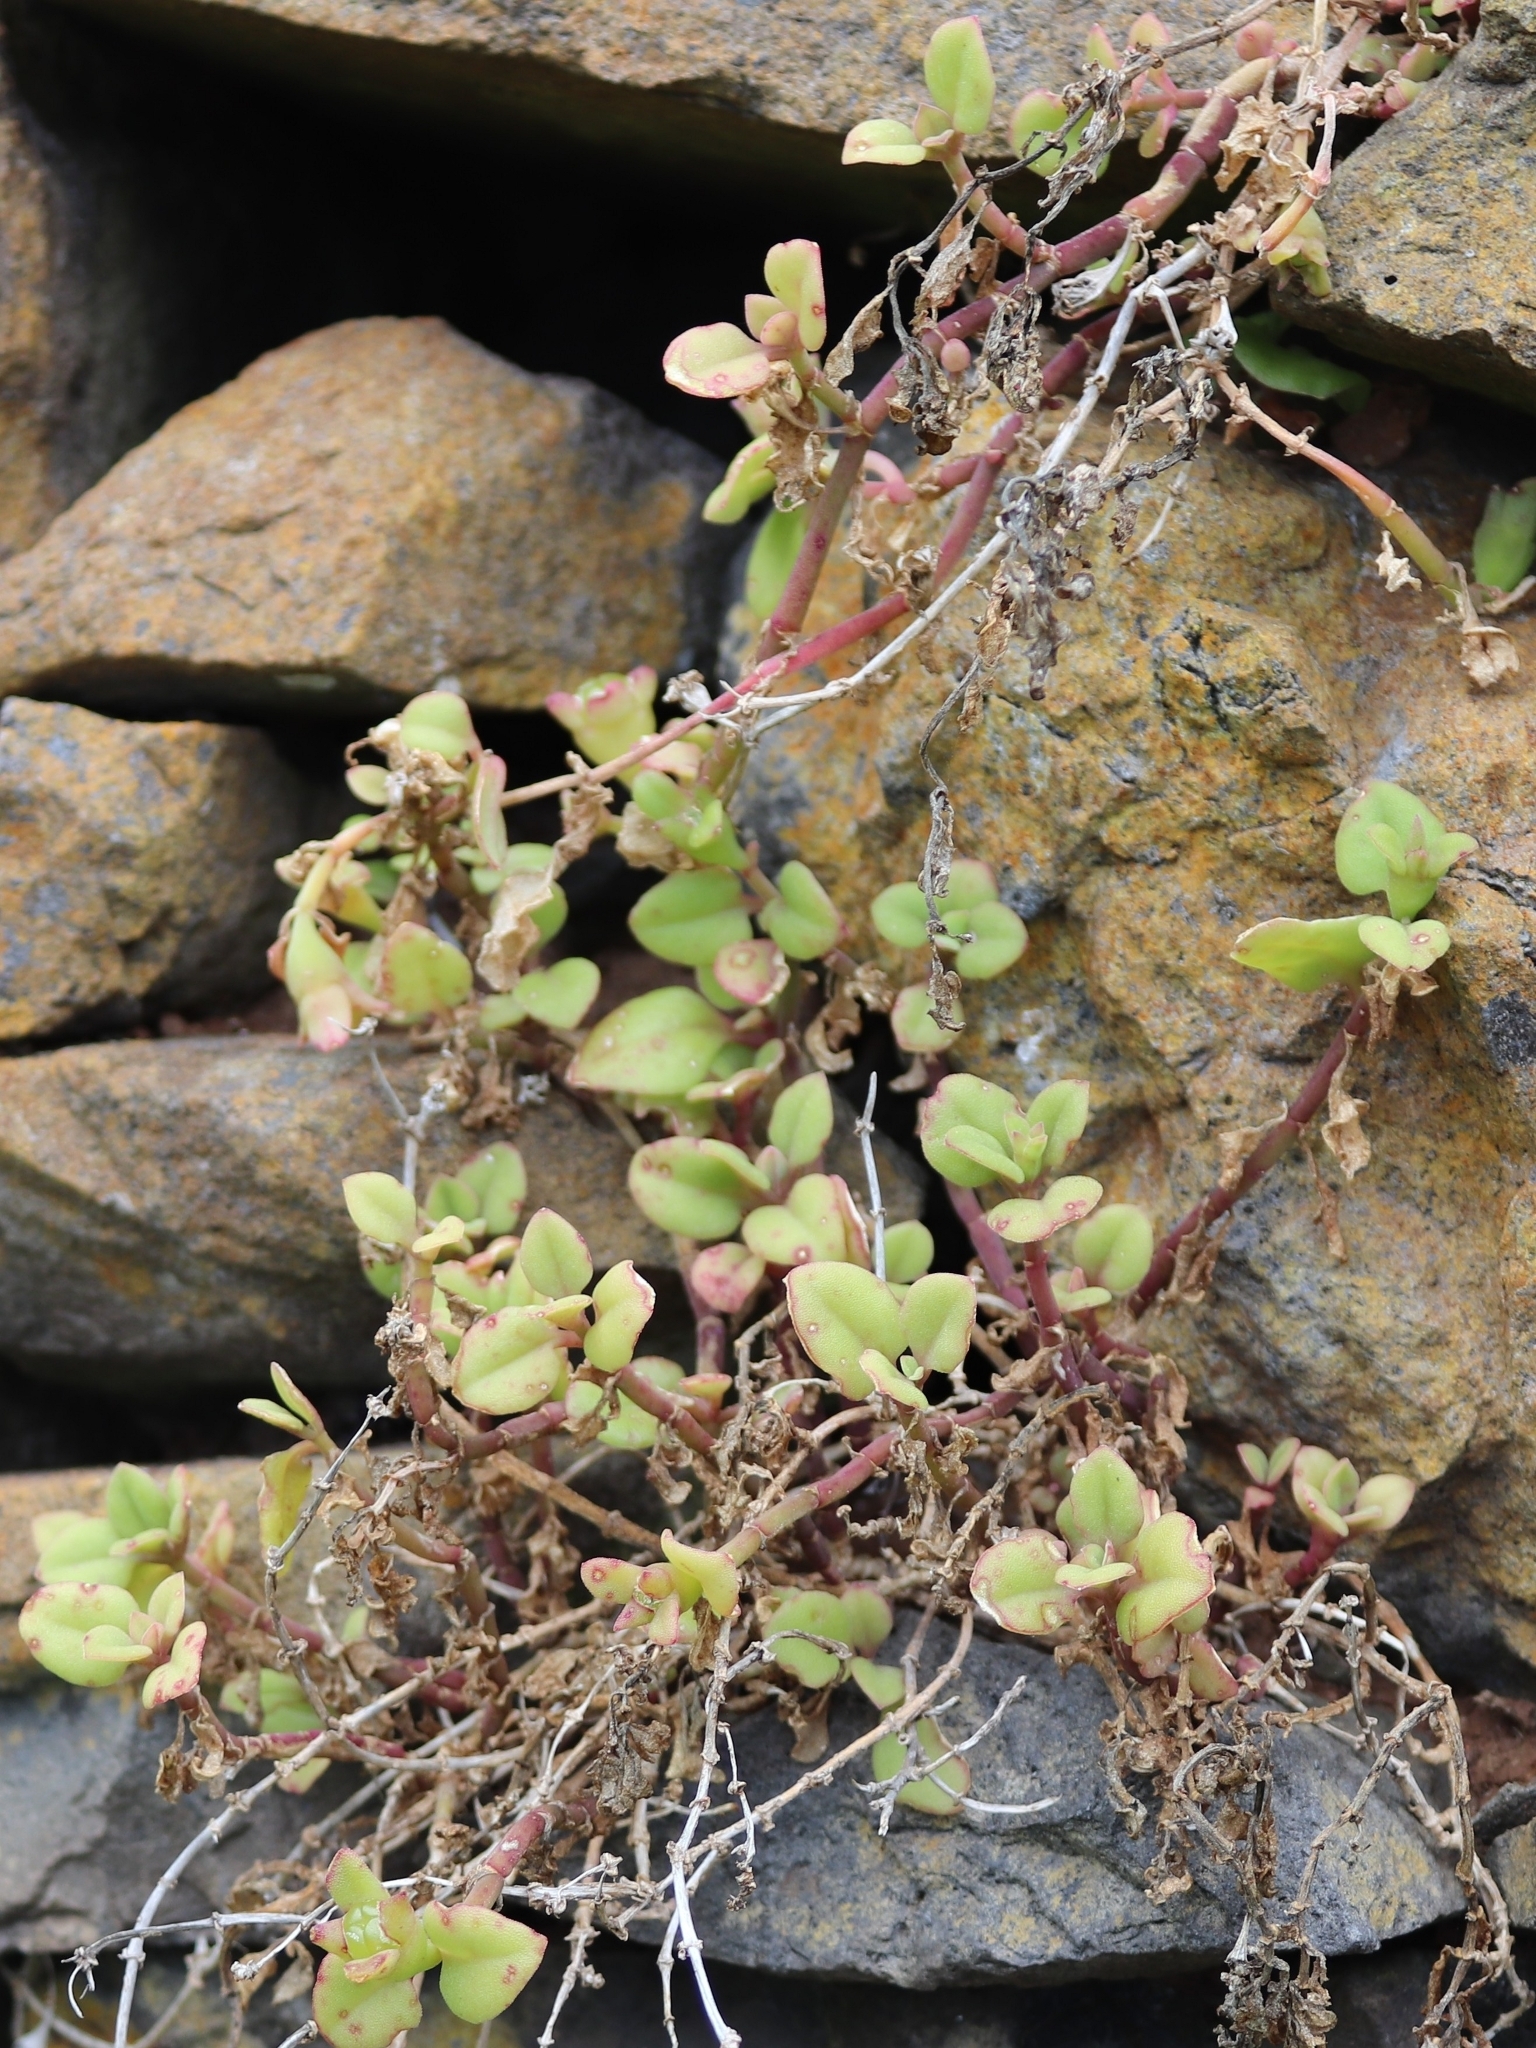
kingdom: Plantae
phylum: Tracheophyta
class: Magnoliopsida
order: Caryophyllales
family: Aizoaceae
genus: Mesembryanthemum
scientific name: Mesembryanthemum cordifolium
